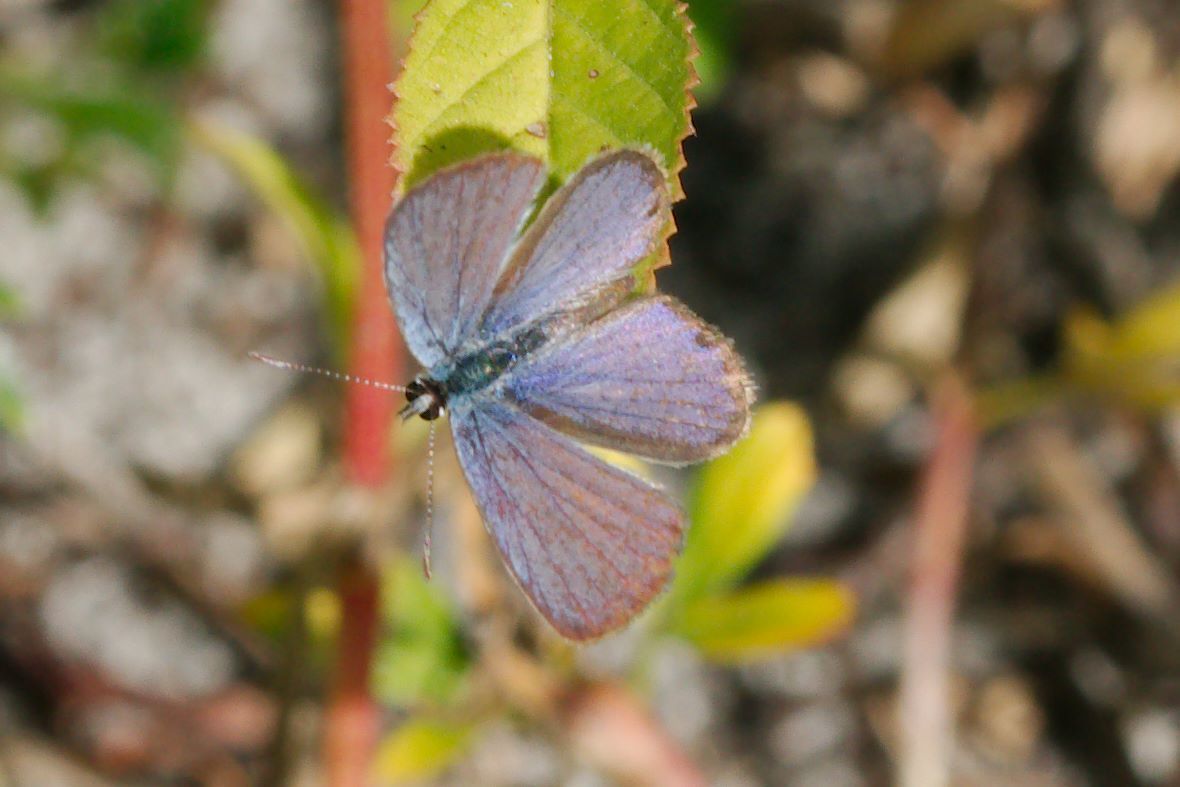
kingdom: Animalia
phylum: Arthropoda
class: Insecta
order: Lepidoptera
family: Lycaenidae
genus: Hemiargus
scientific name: Hemiargus ceraunus
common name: Ceraunus blue
